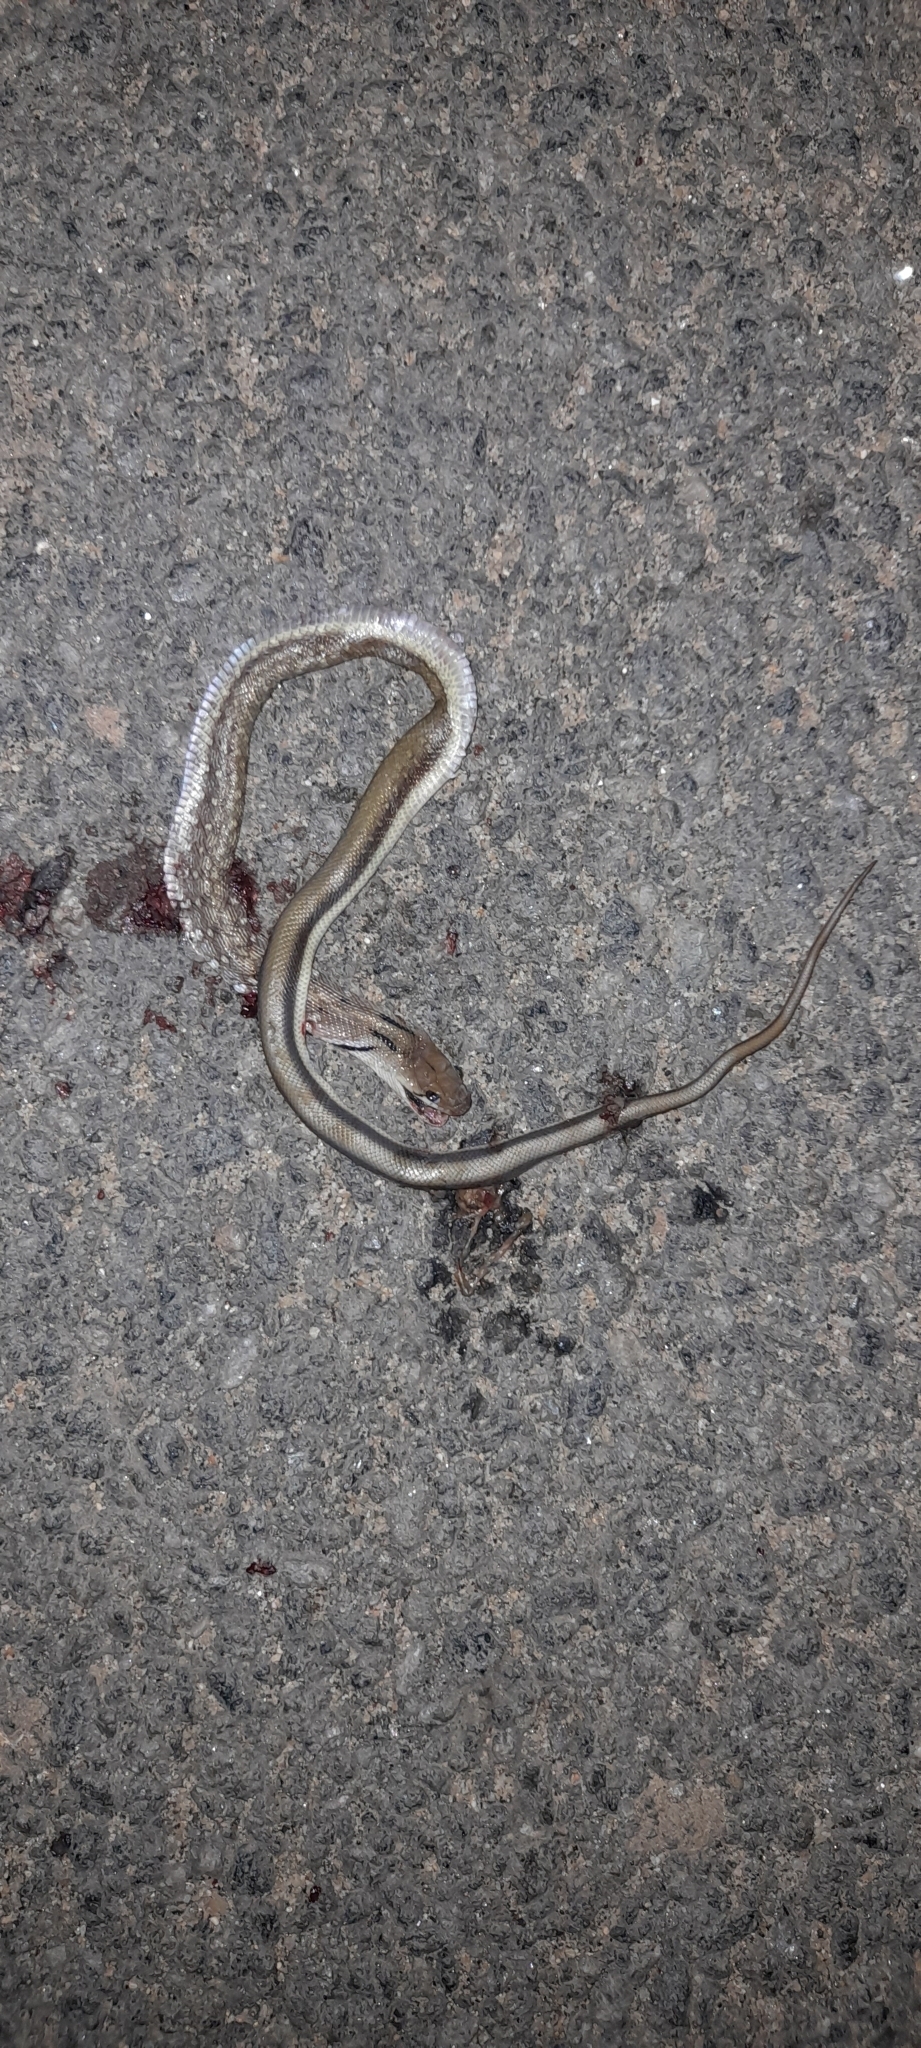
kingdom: Animalia
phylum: Chordata
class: Squamata
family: Colubridae
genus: Coelognathus
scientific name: Coelognathus helena
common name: Trinket snake
